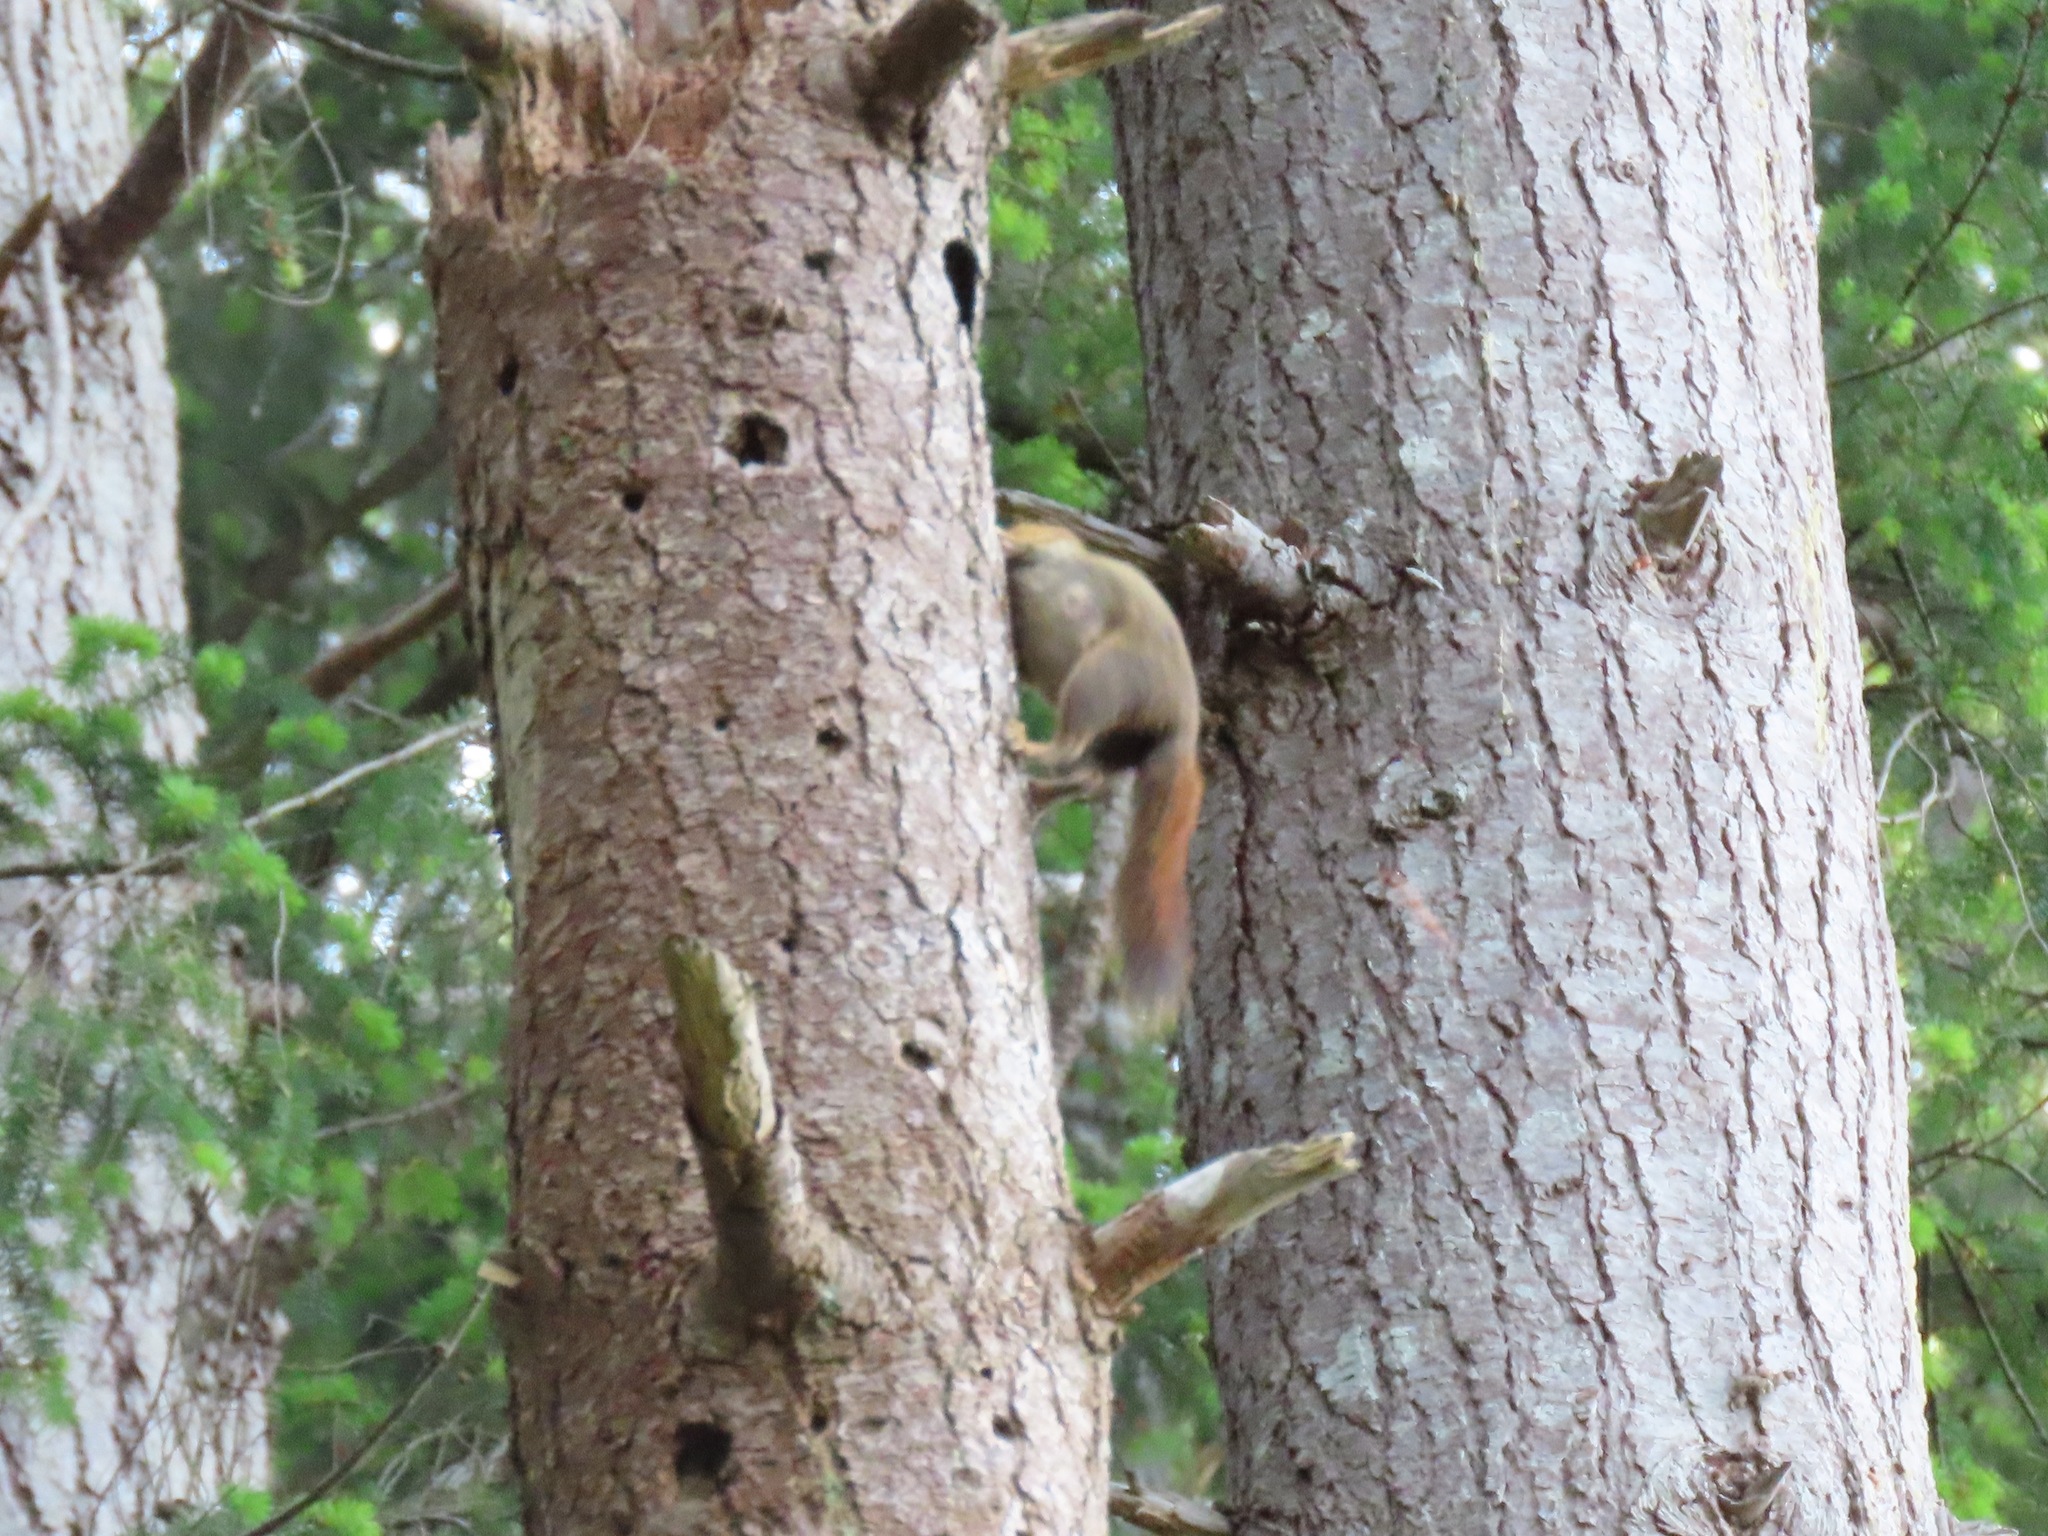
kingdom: Animalia
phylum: Chordata
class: Mammalia
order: Rodentia
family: Sciuridae
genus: Tamiasciurus
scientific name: Tamiasciurus hudsonicus
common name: Red squirrel
